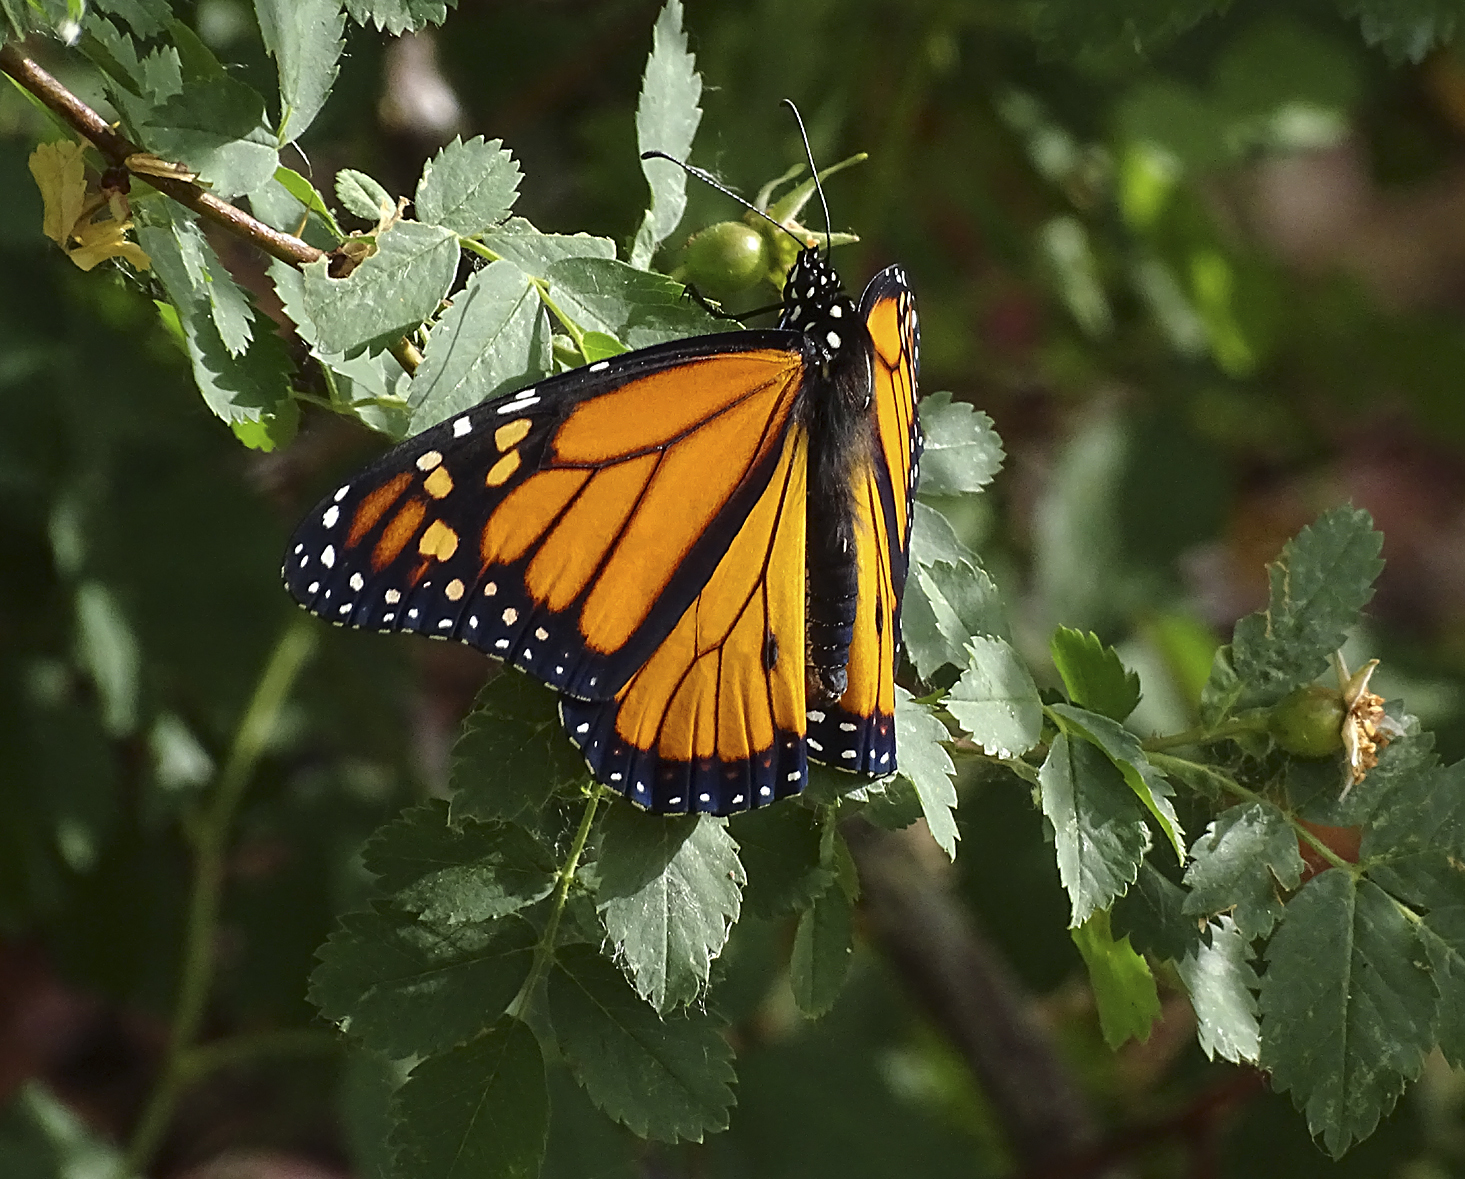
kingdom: Animalia
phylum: Arthropoda
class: Insecta
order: Lepidoptera
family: Nymphalidae
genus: Danaus
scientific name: Danaus plexippus
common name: Monarch
